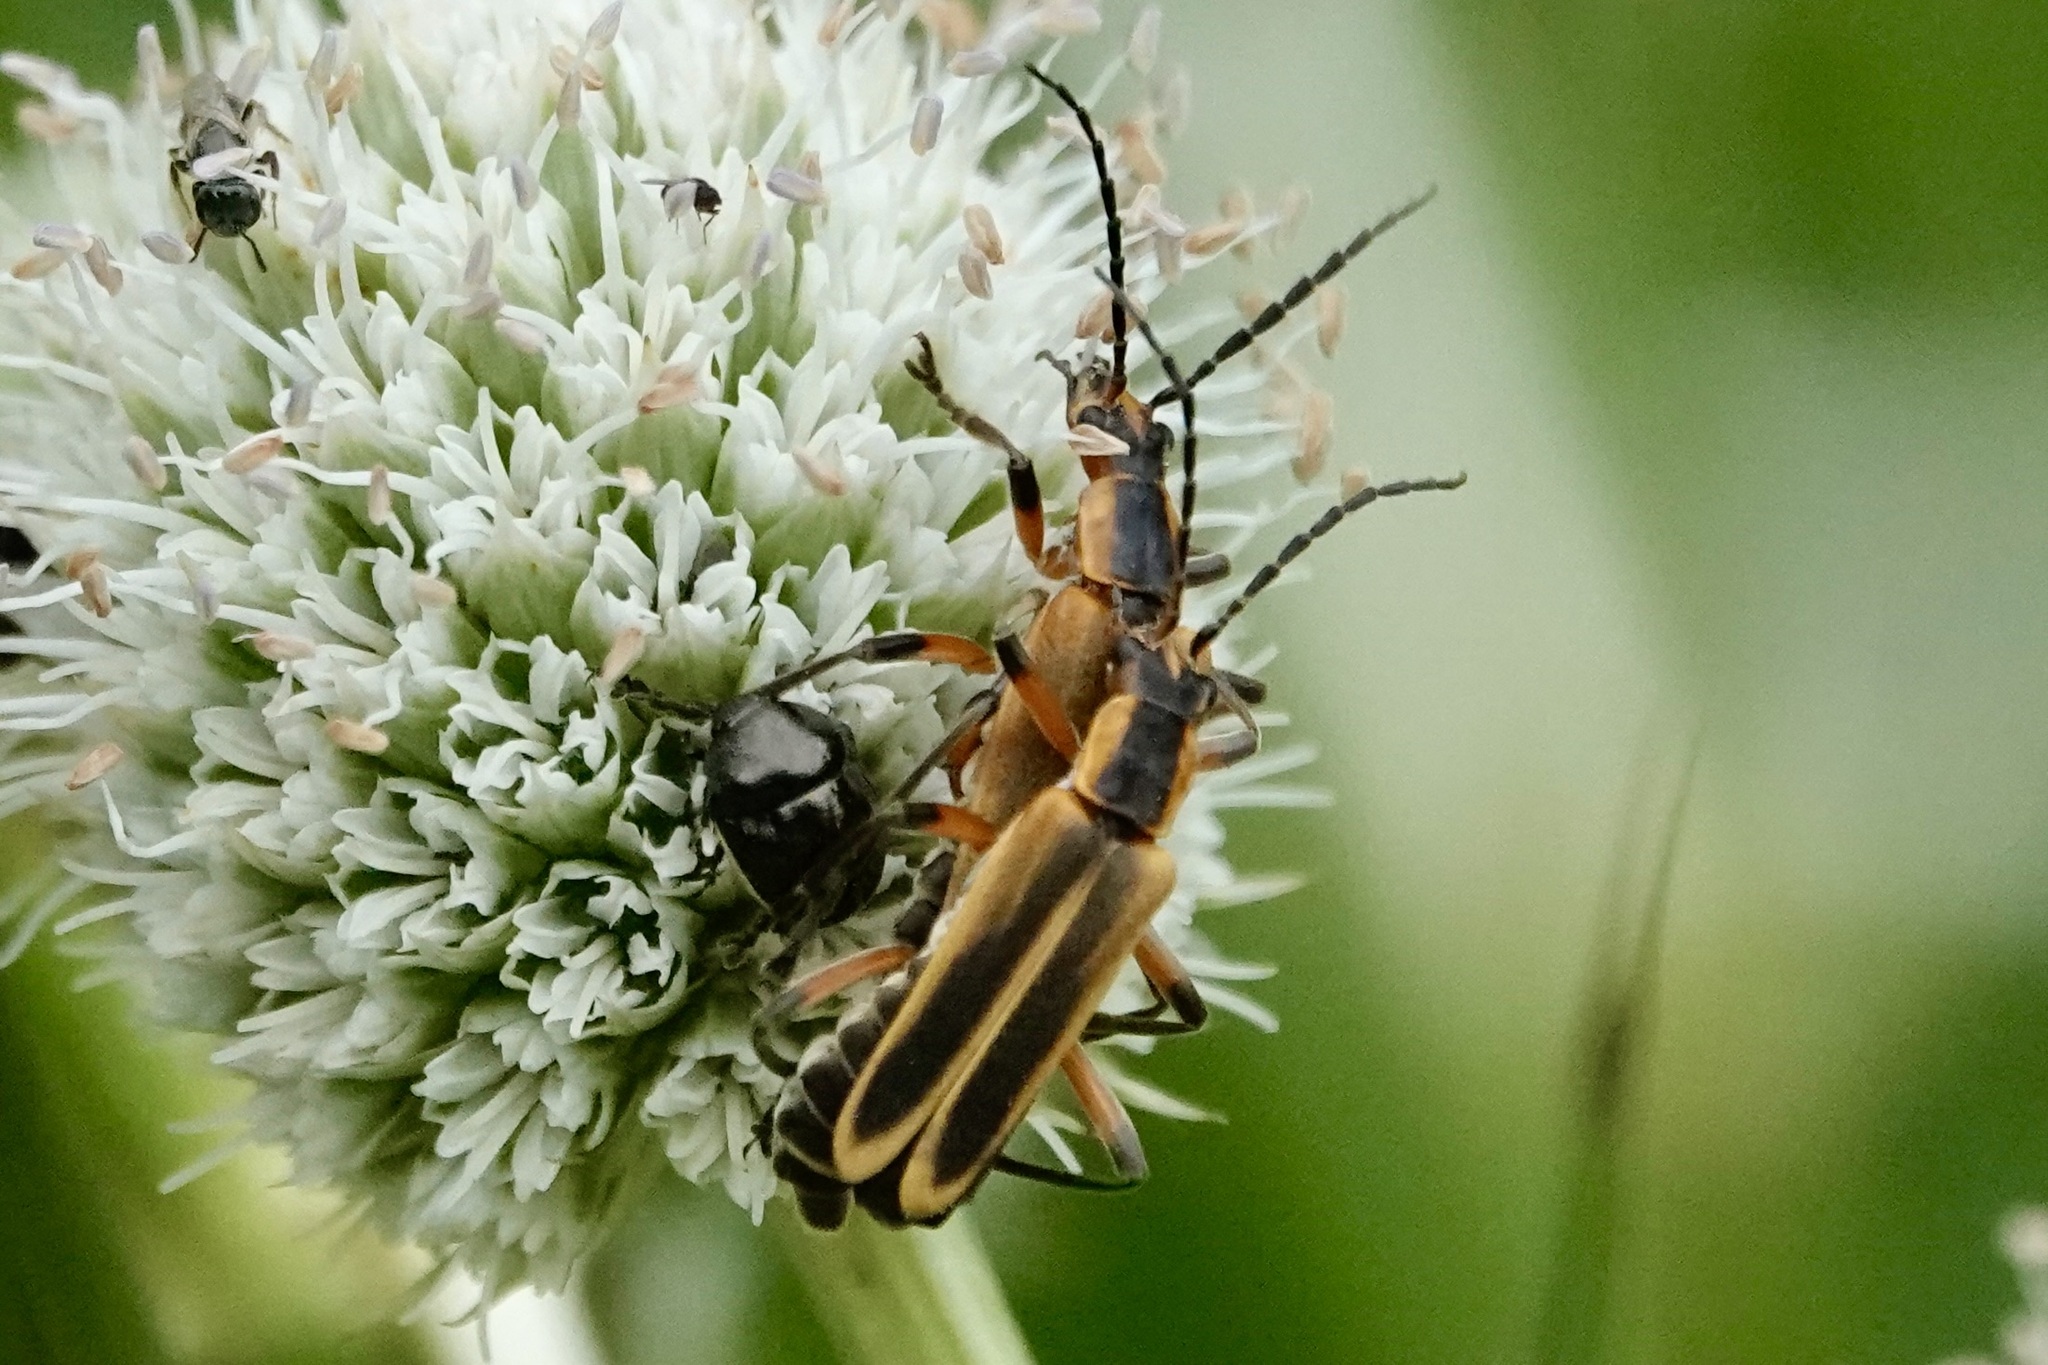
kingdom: Animalia
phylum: Arthropoda
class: Insecta
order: Coleoptera
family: Cantharidae
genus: Chauliognathus
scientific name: Chauliognathus marginatus
